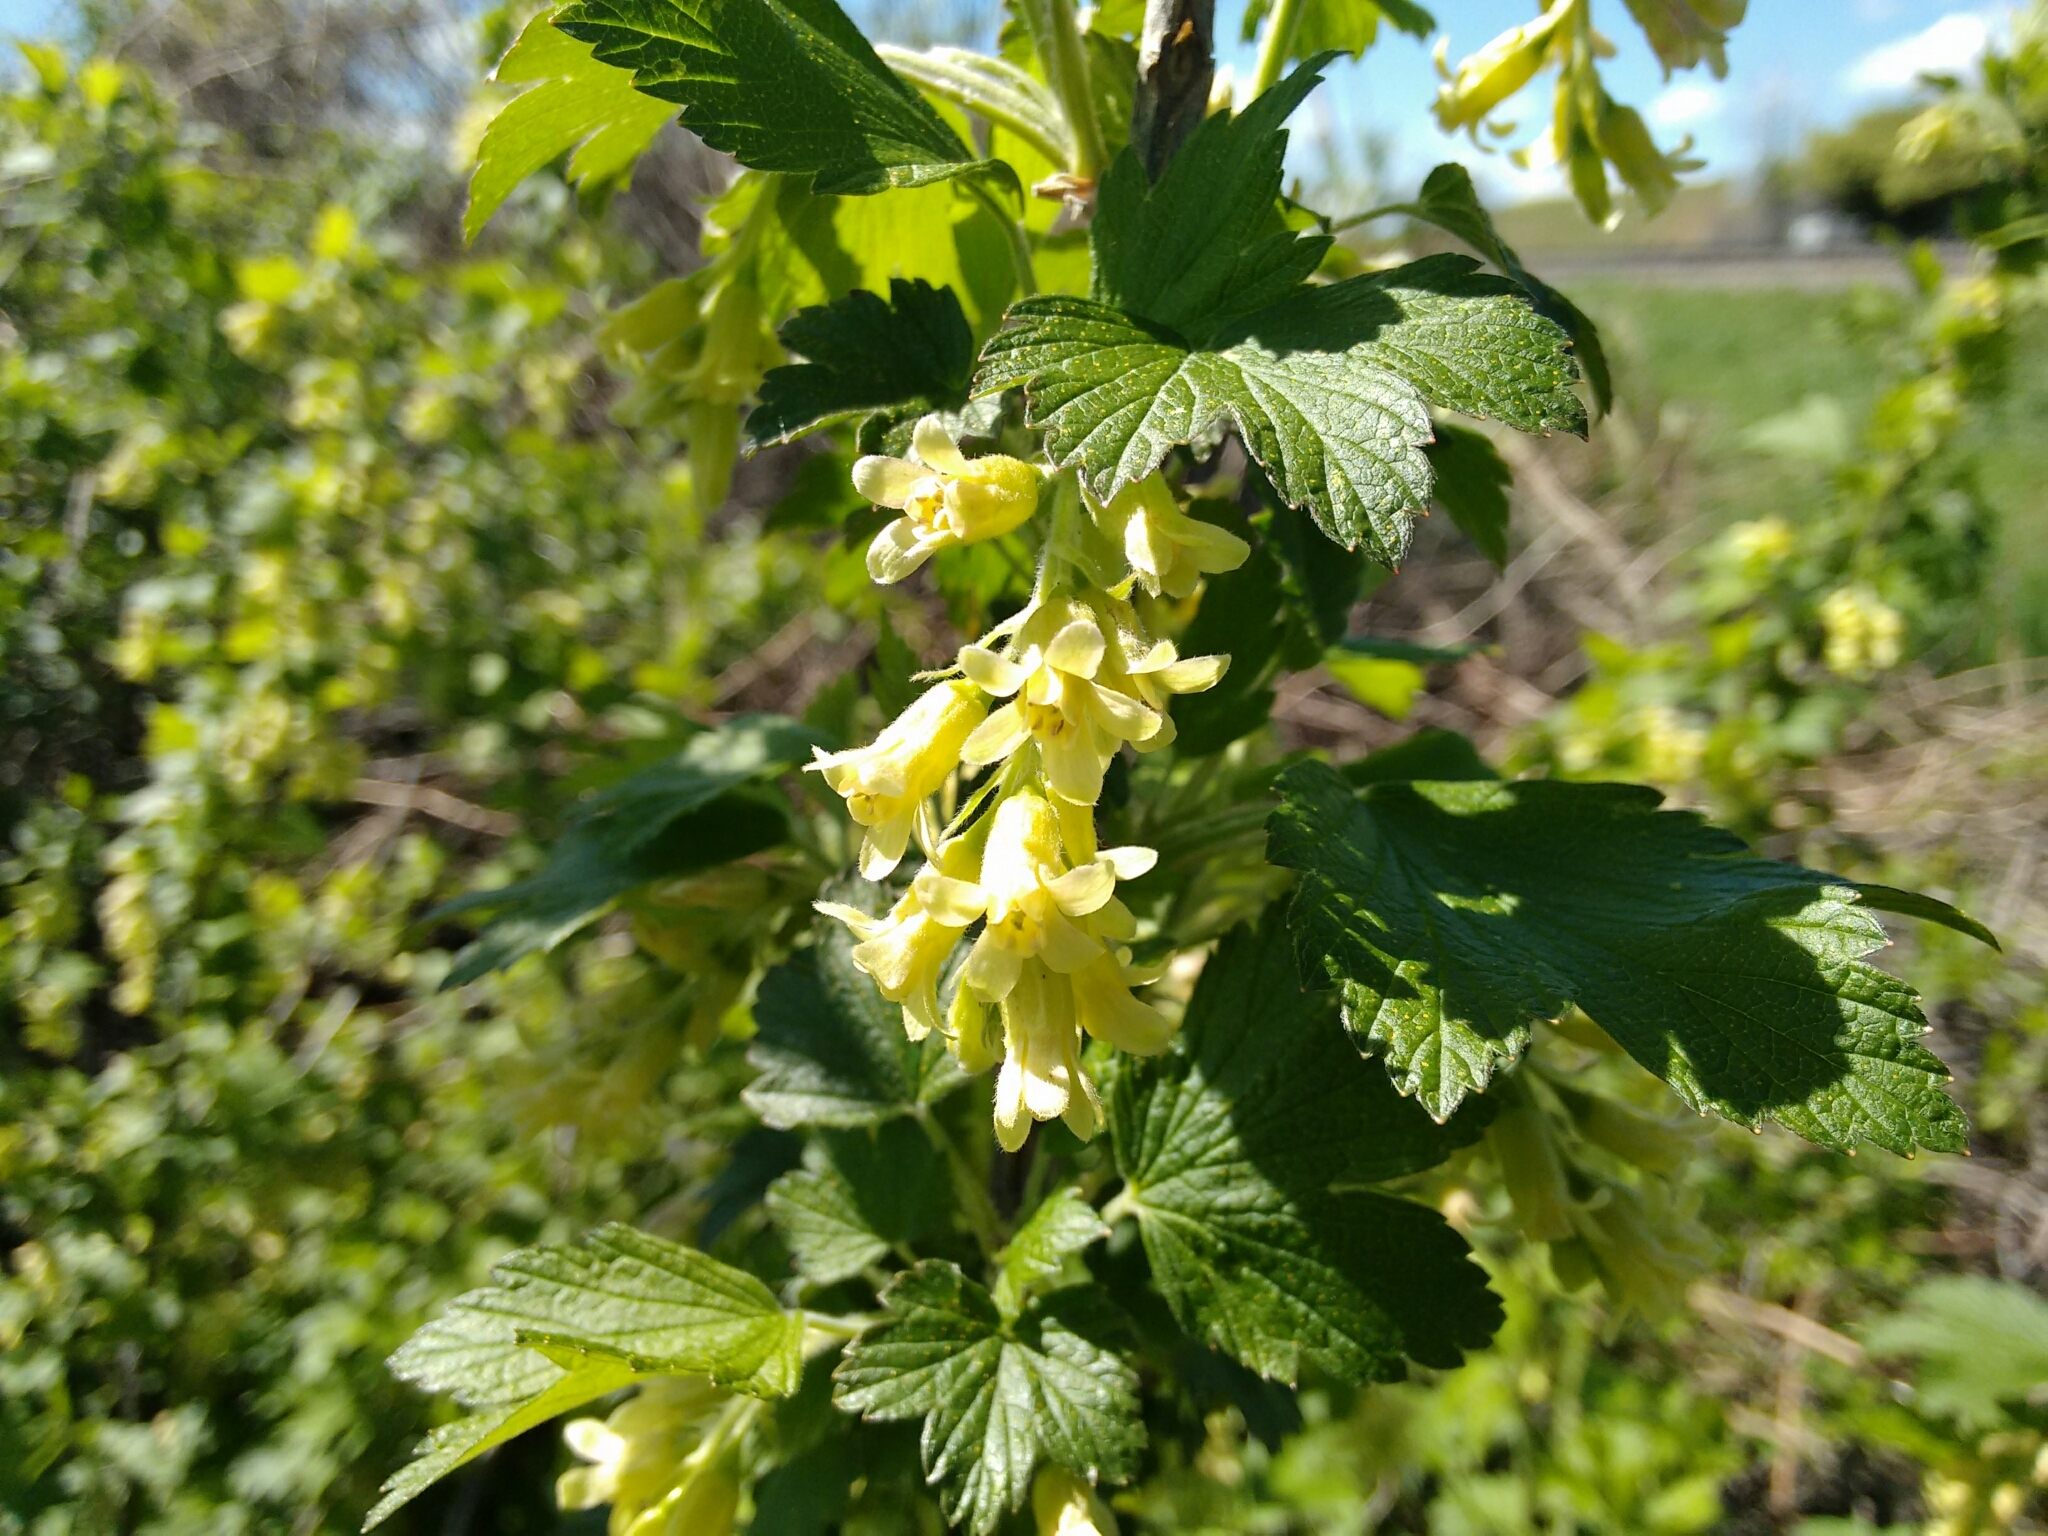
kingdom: Plantae
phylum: Tracheophyta
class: Magnoliopsida
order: Saxifragales
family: Grossulariaceae
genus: Ribes
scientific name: Ribes americanum
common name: American black currant
